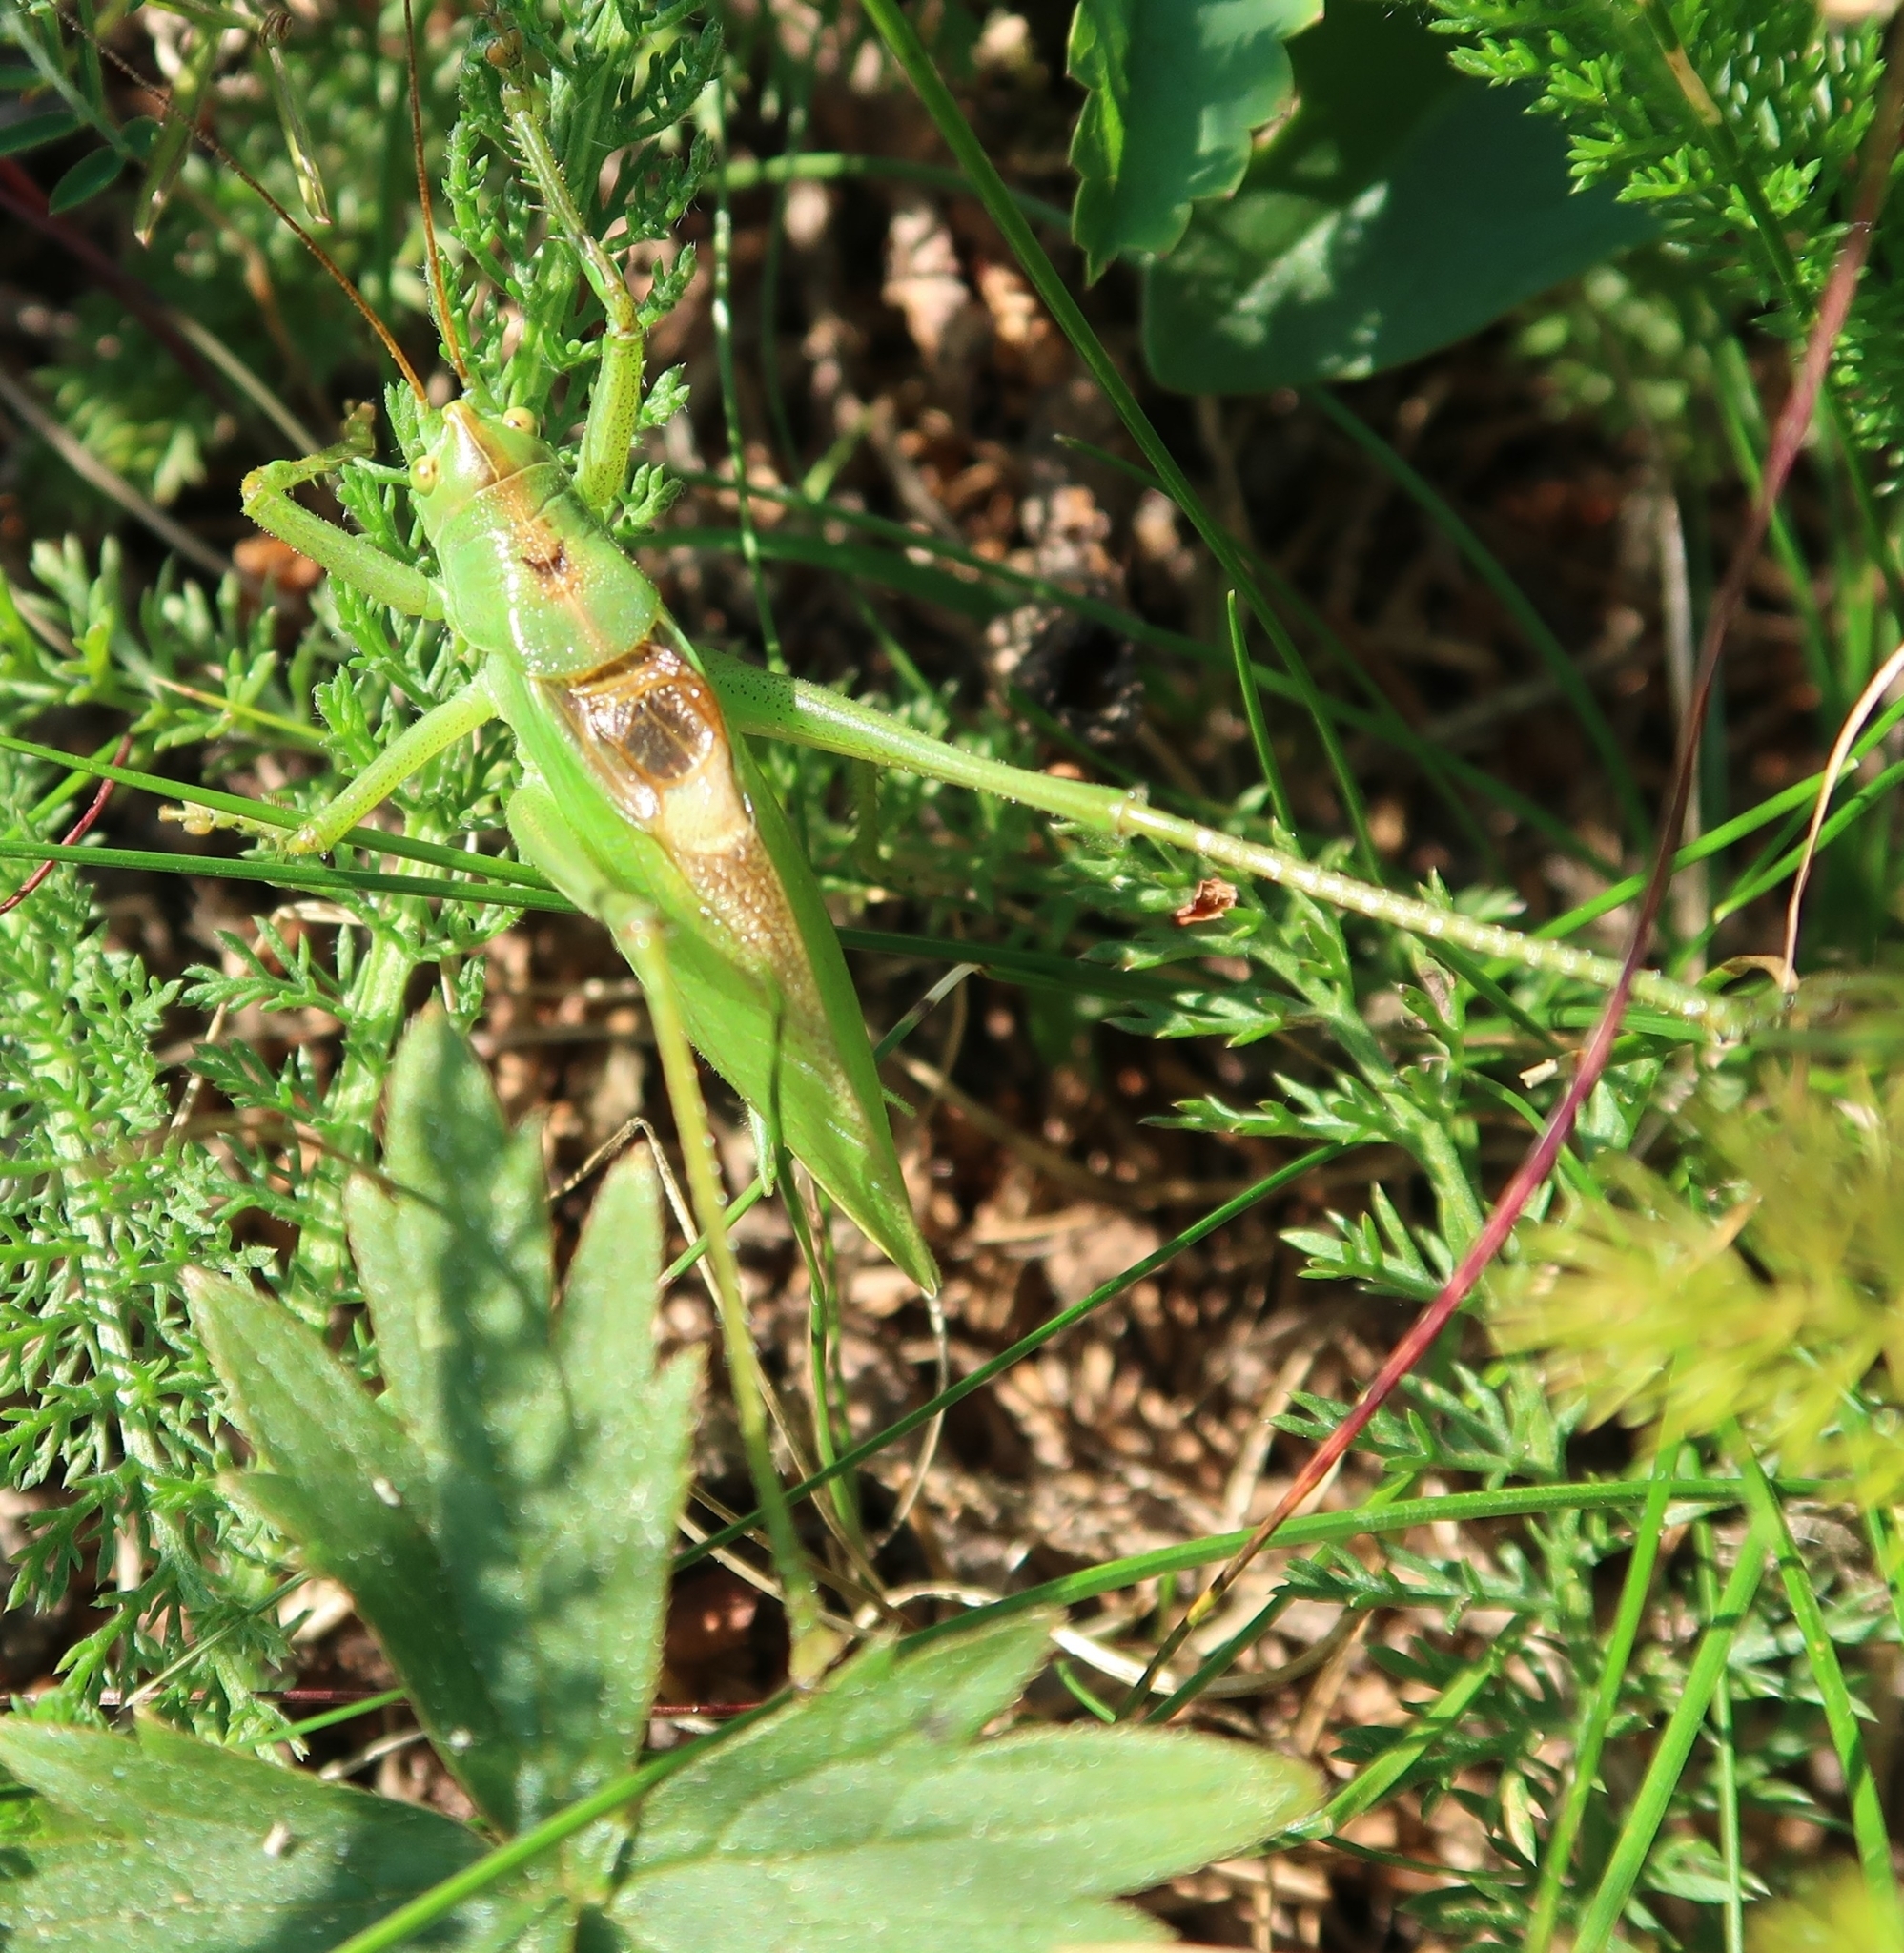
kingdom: Animalia
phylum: Arthropoda
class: Insecta
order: Orthoptera
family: Tettigoniidae
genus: Tettigonia
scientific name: Tettigonia cantans
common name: Upland green bush-cricket
